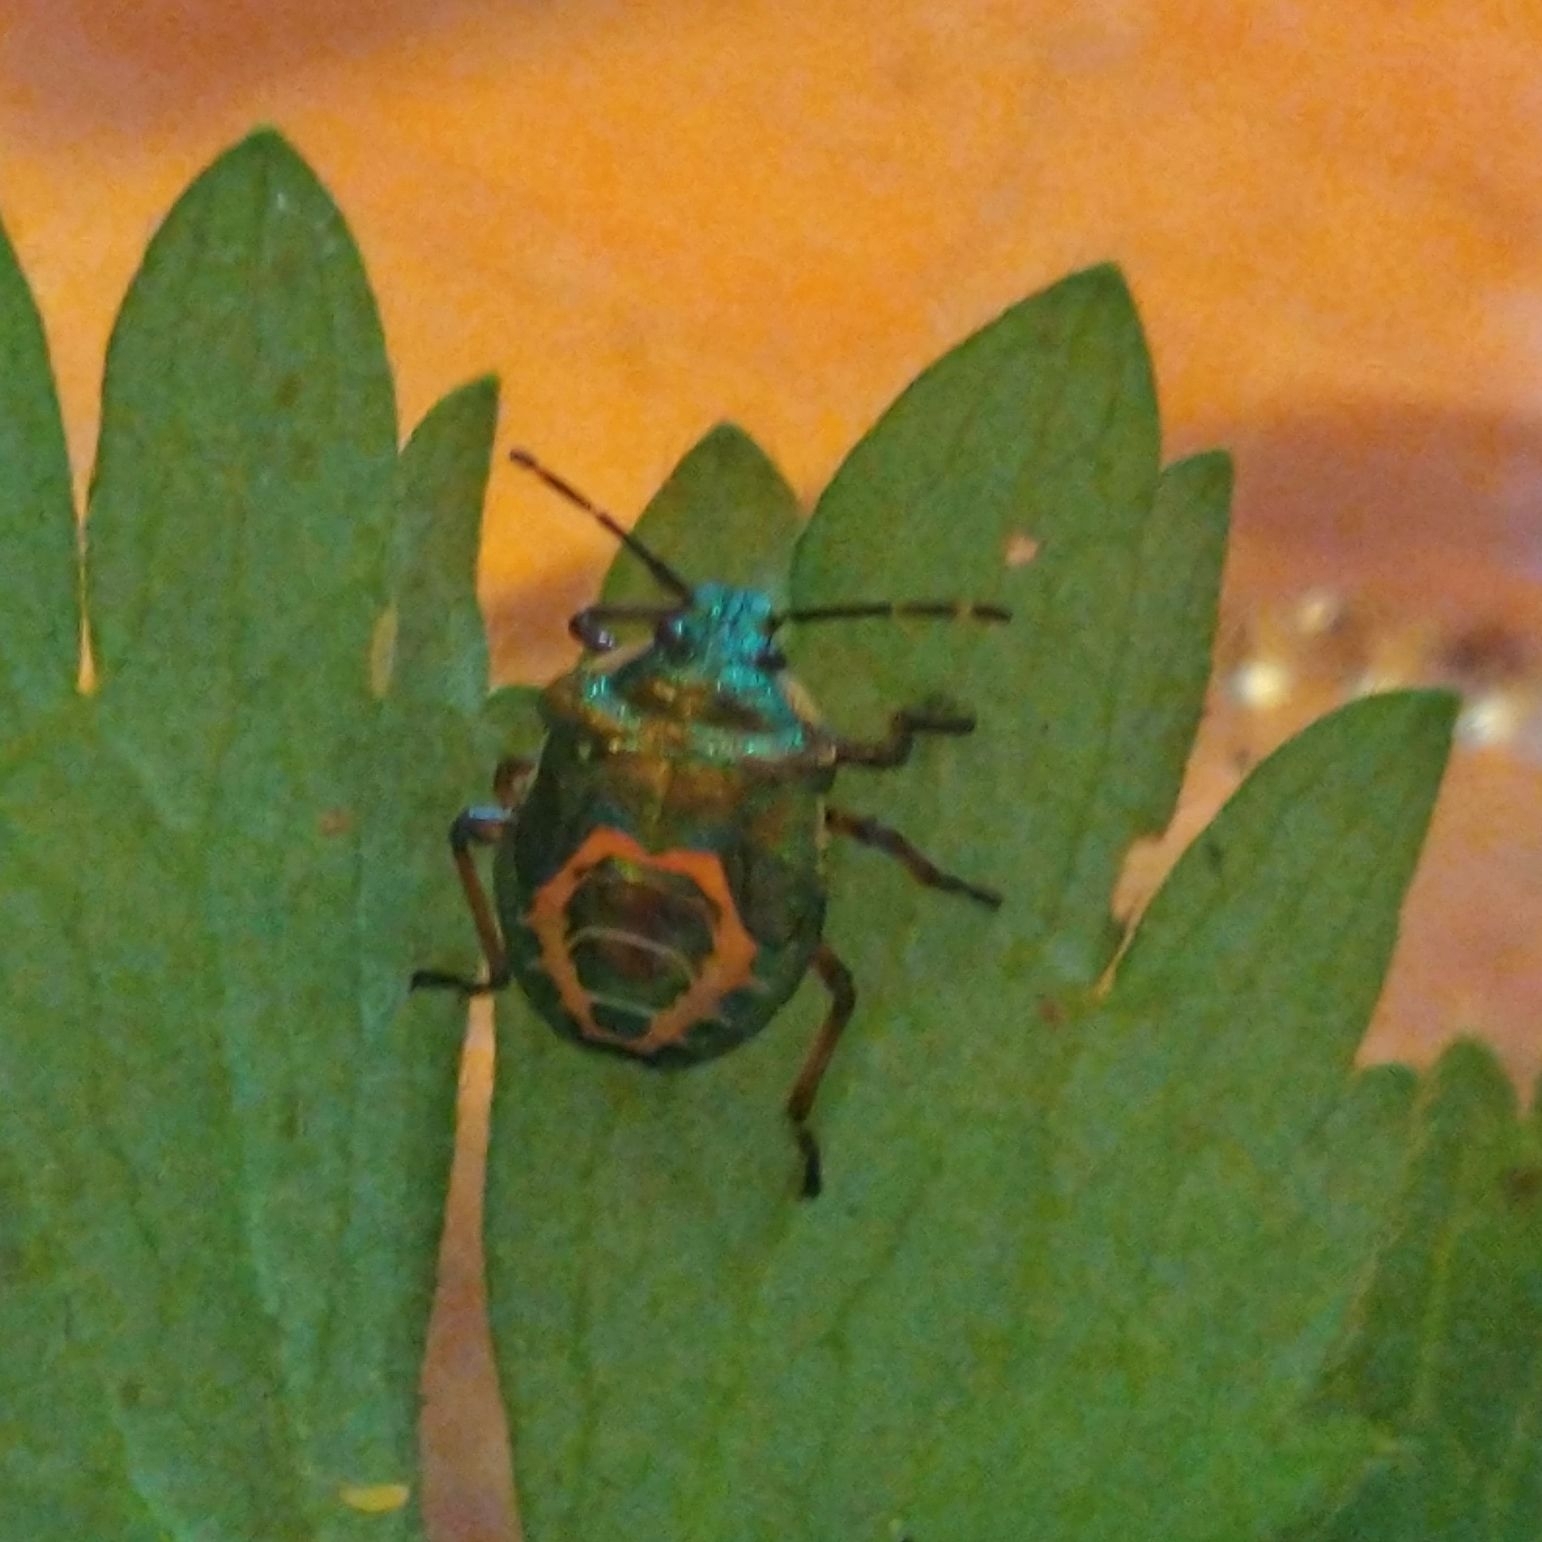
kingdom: Animalia
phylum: Arthropoda
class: Insecta
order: Hemiptera
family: Pentatomidae
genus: Troilus
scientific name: Troilus luridus
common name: Bronze shieldbug
